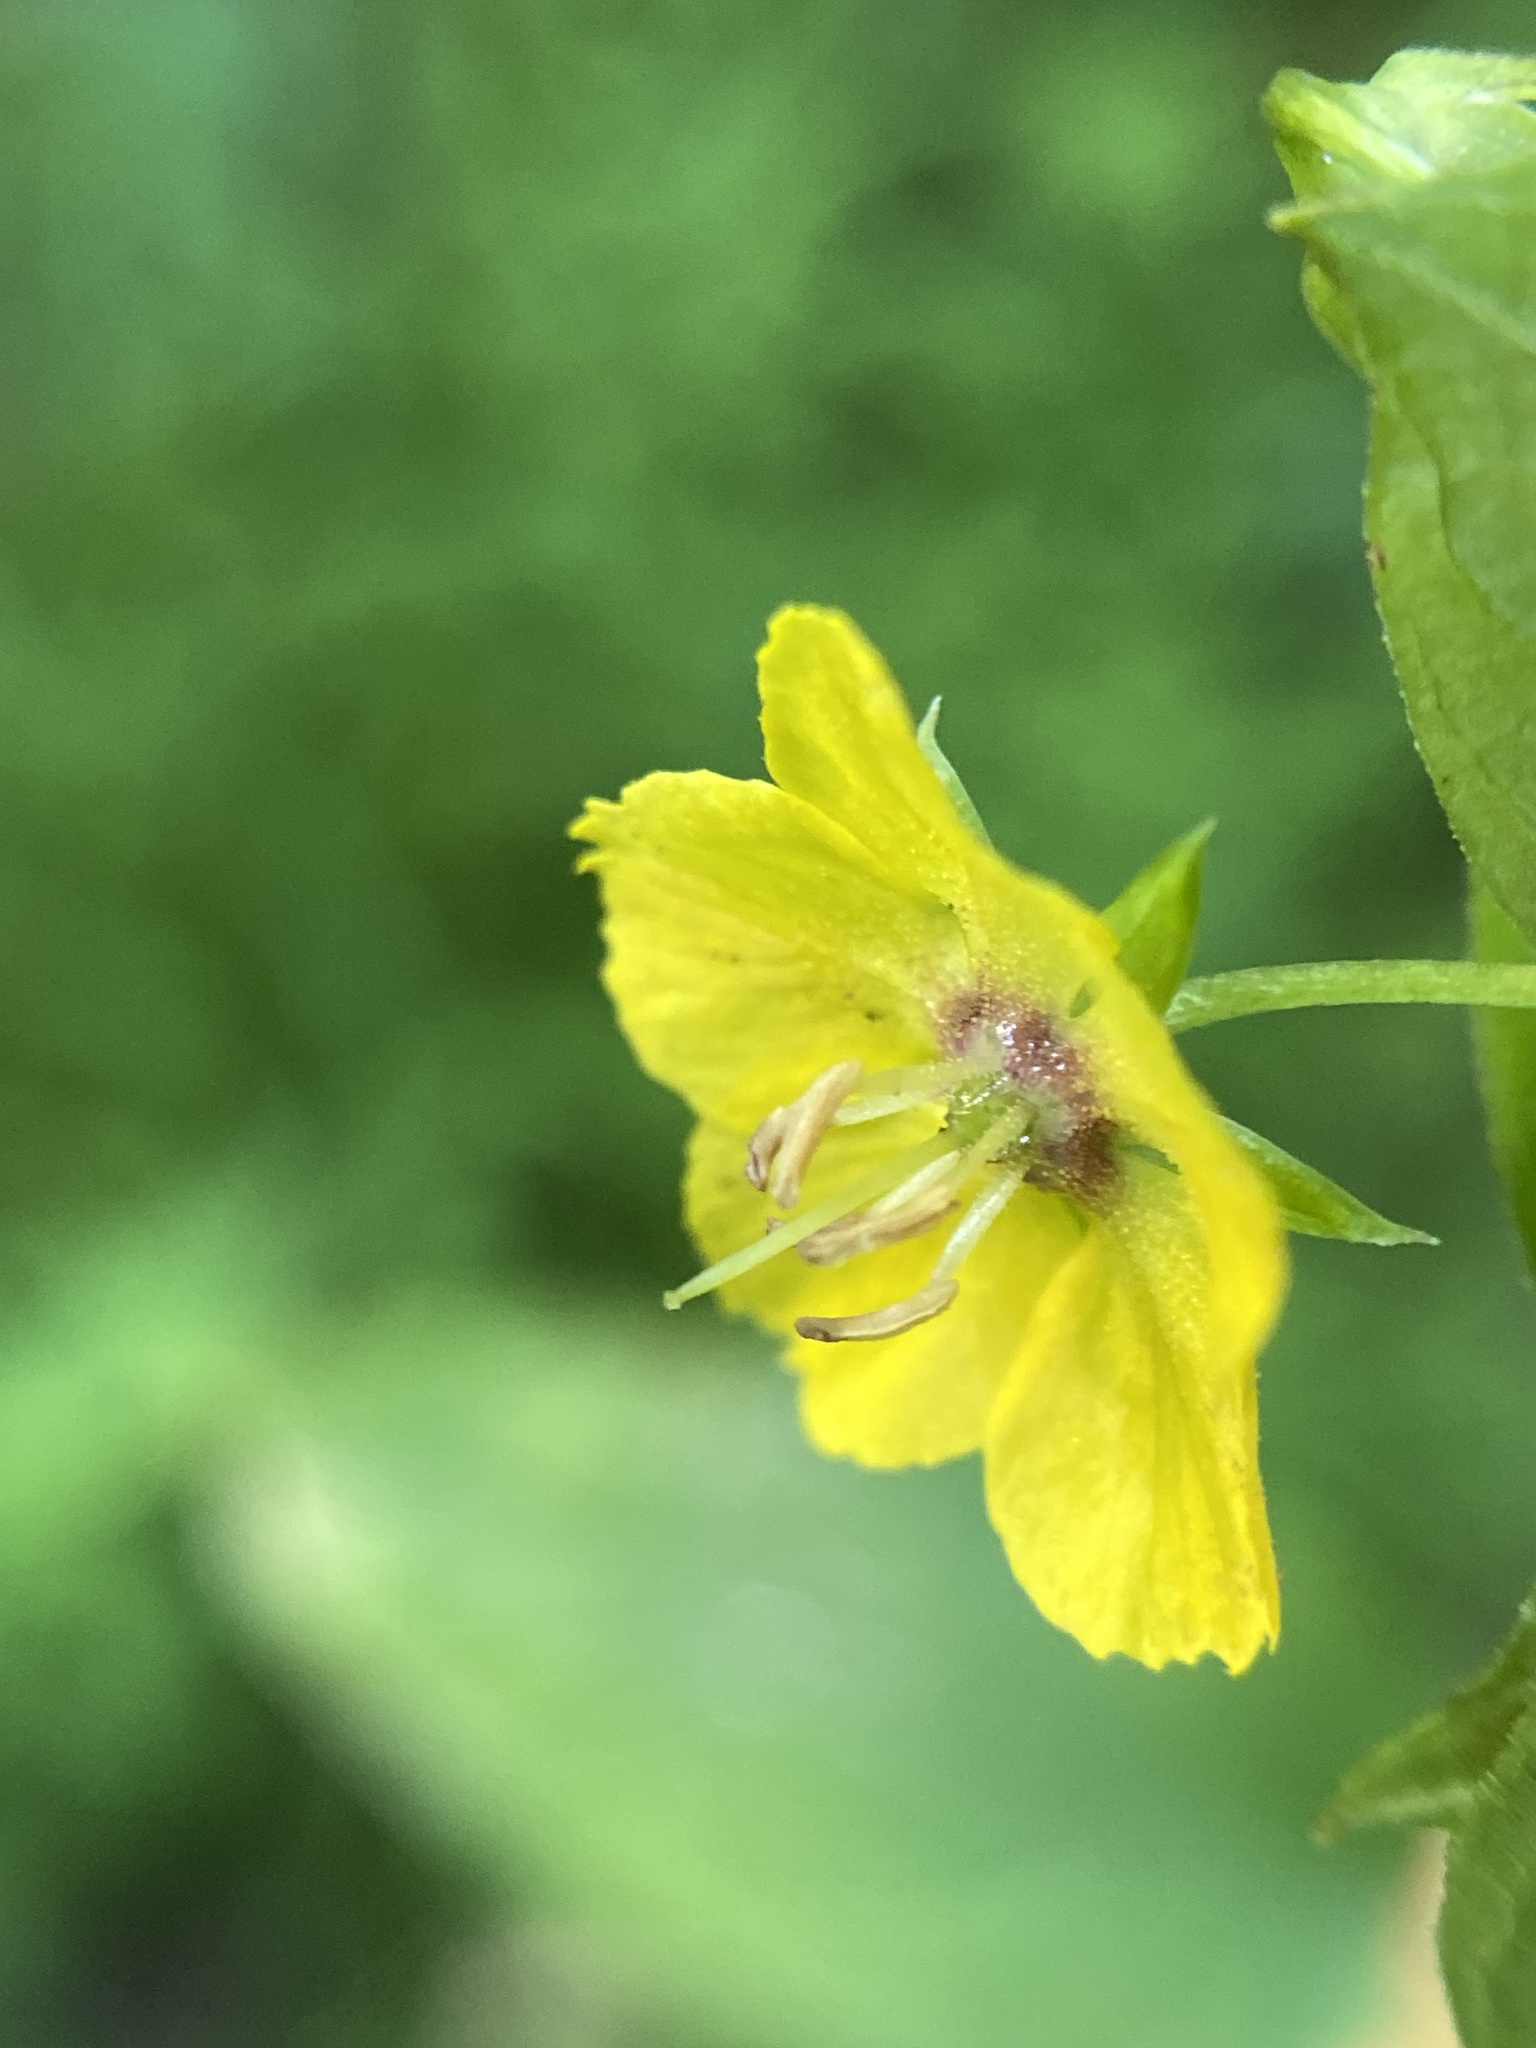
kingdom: Plantae
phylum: Tracheophyta
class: Magnoliopsida
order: Ericales
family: Primulaceae
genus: Lysimachia
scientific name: Lysimachia ciliata
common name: Fringed loosestrife
